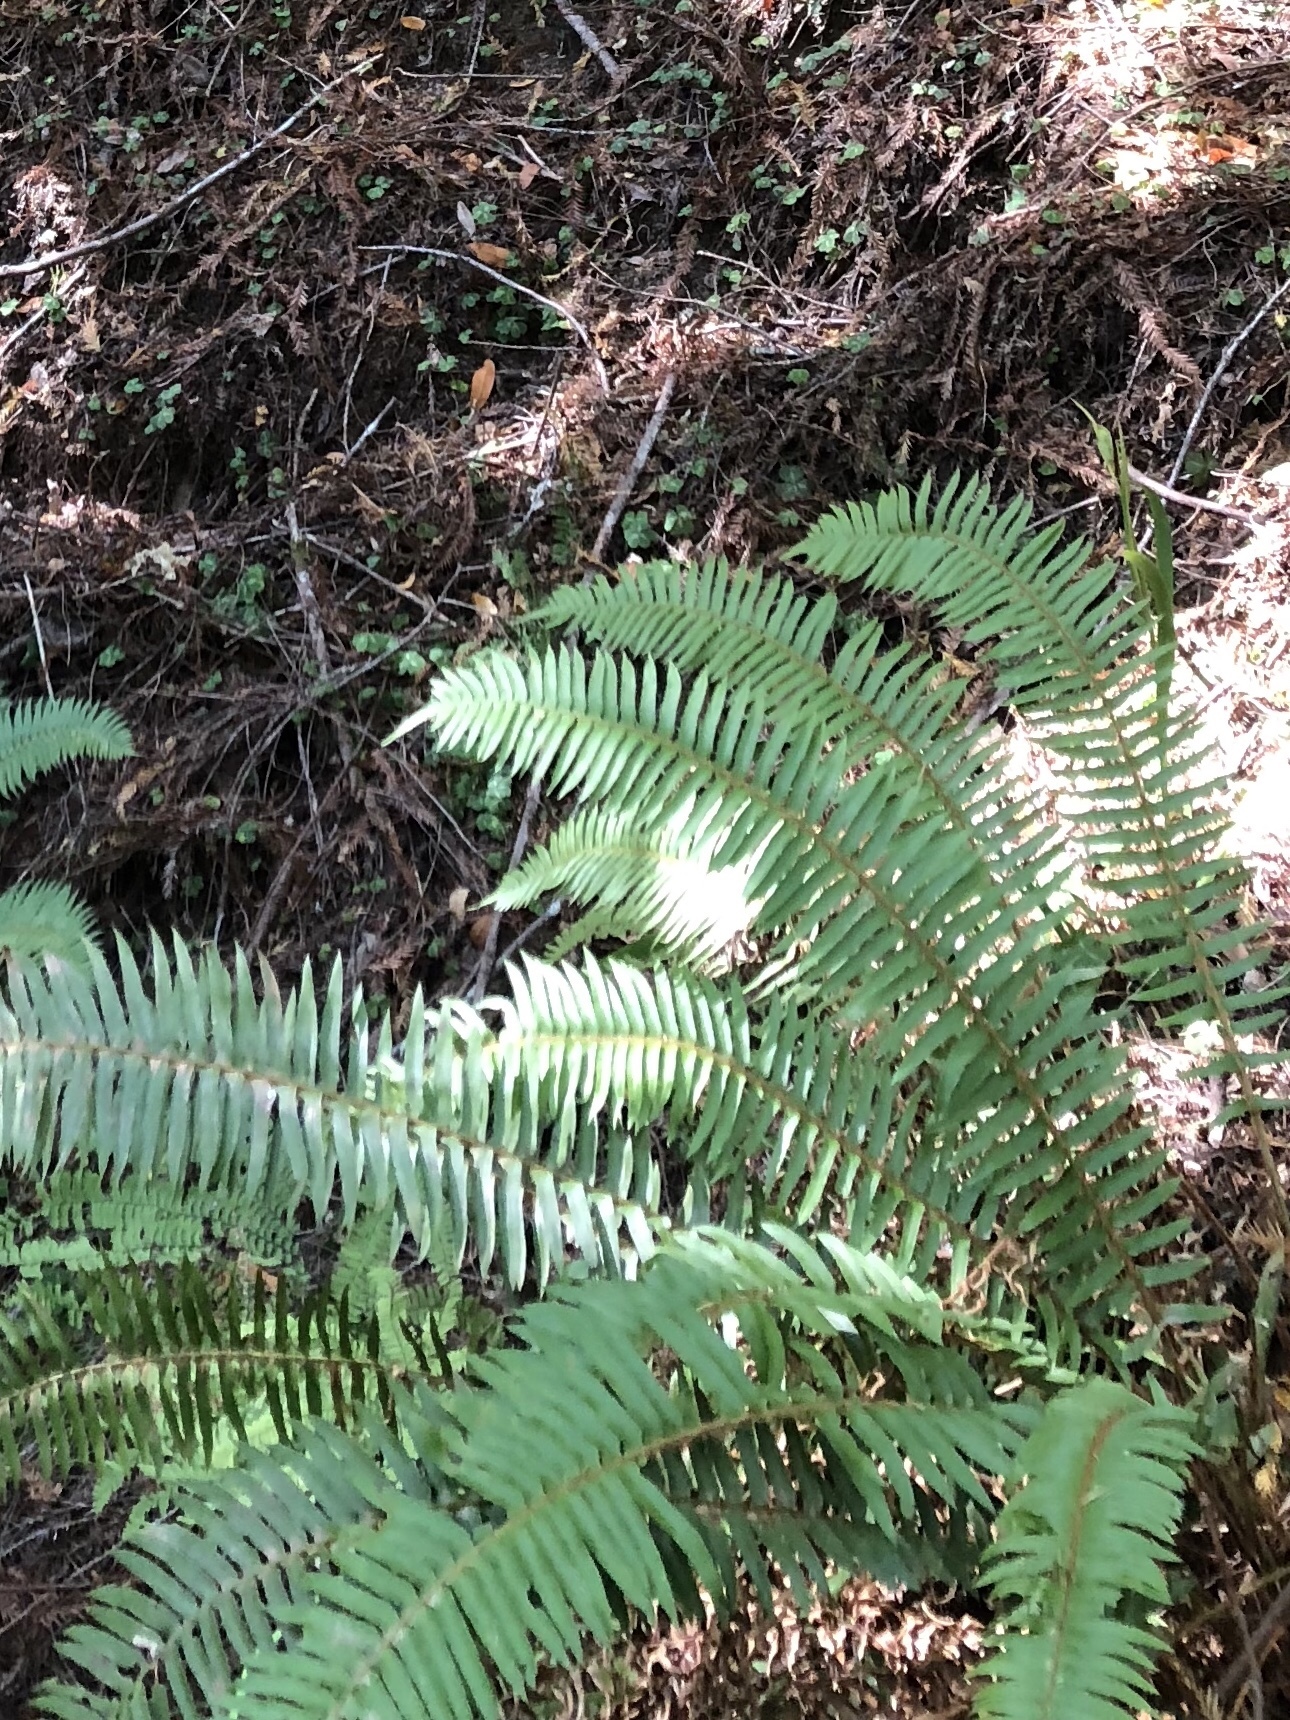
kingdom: Plantae
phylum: Tracheophyta
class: Polypodiopsida
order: Polypodiales
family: Dryopteridaceae
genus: Polystichum
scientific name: Polystichum munitum
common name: Western sword-fern
